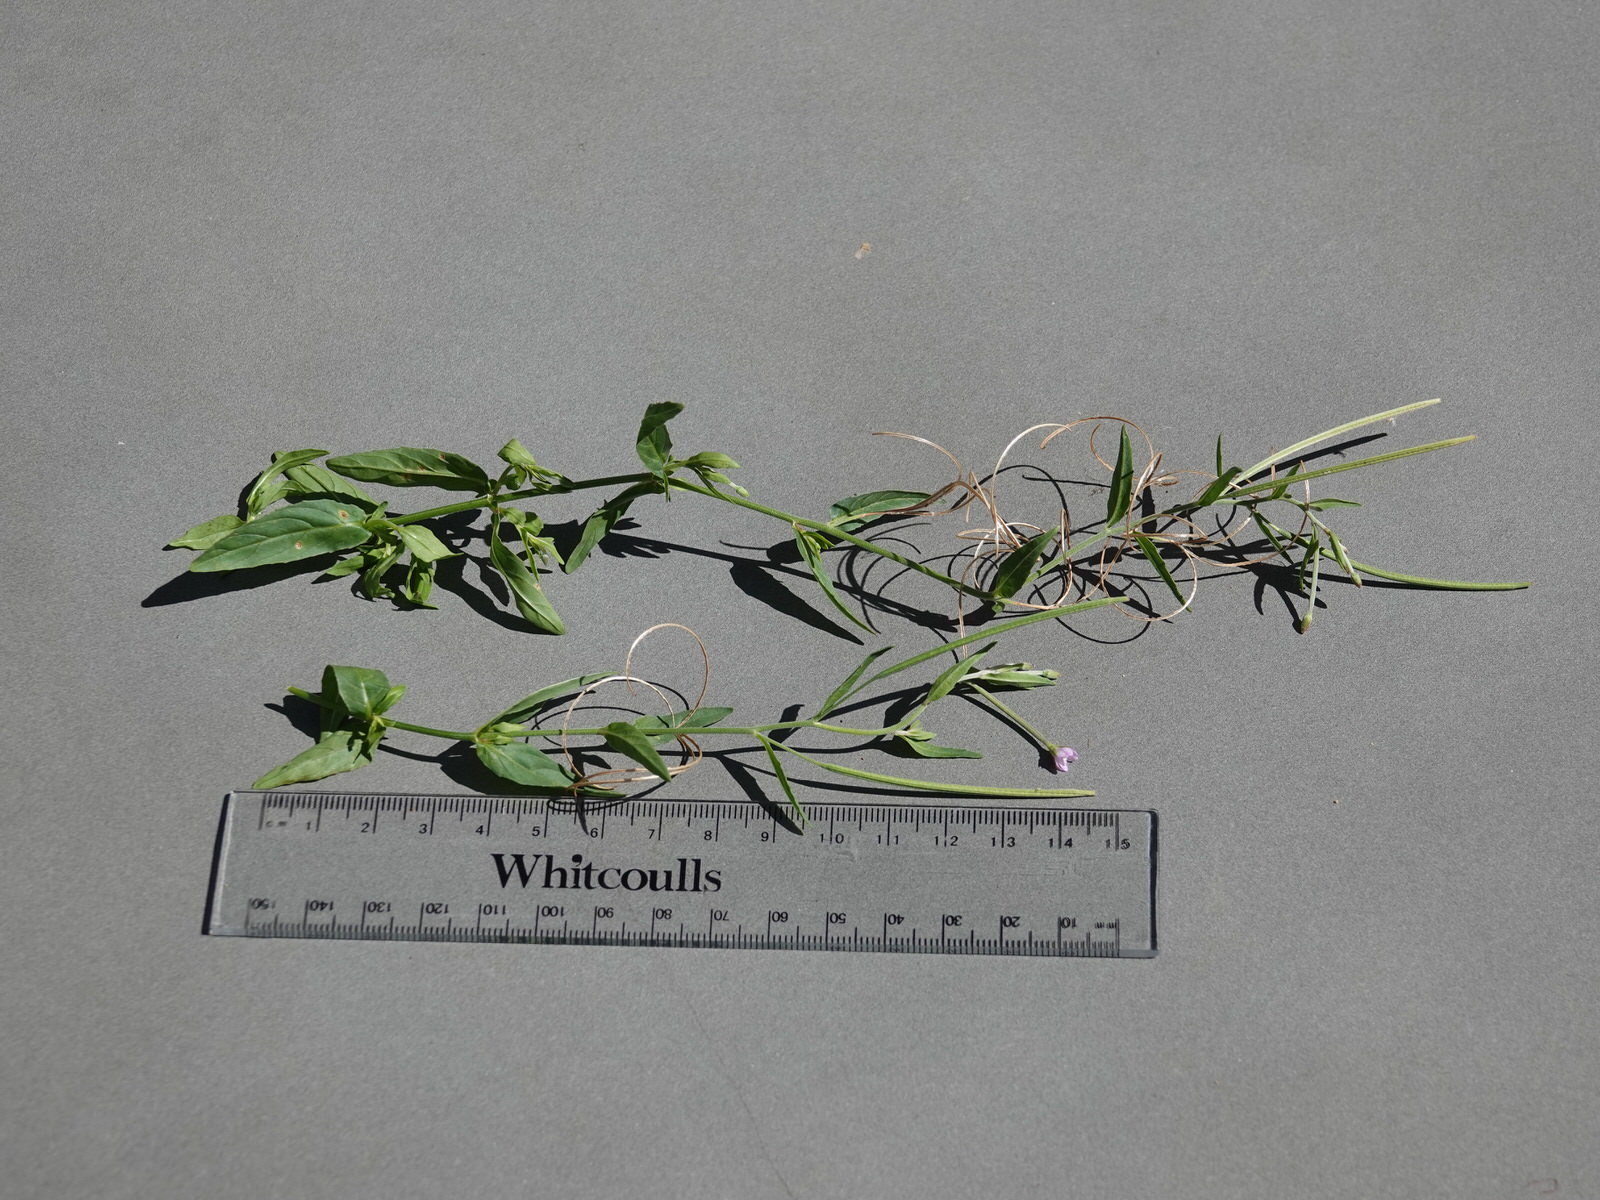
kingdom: Plantae
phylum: Tracheophyta
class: Magnoliopsida
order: Myrtales
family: Onagraceae
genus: Epilobium
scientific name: Epilobium tetragonum
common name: Square-stemmed willowherb
